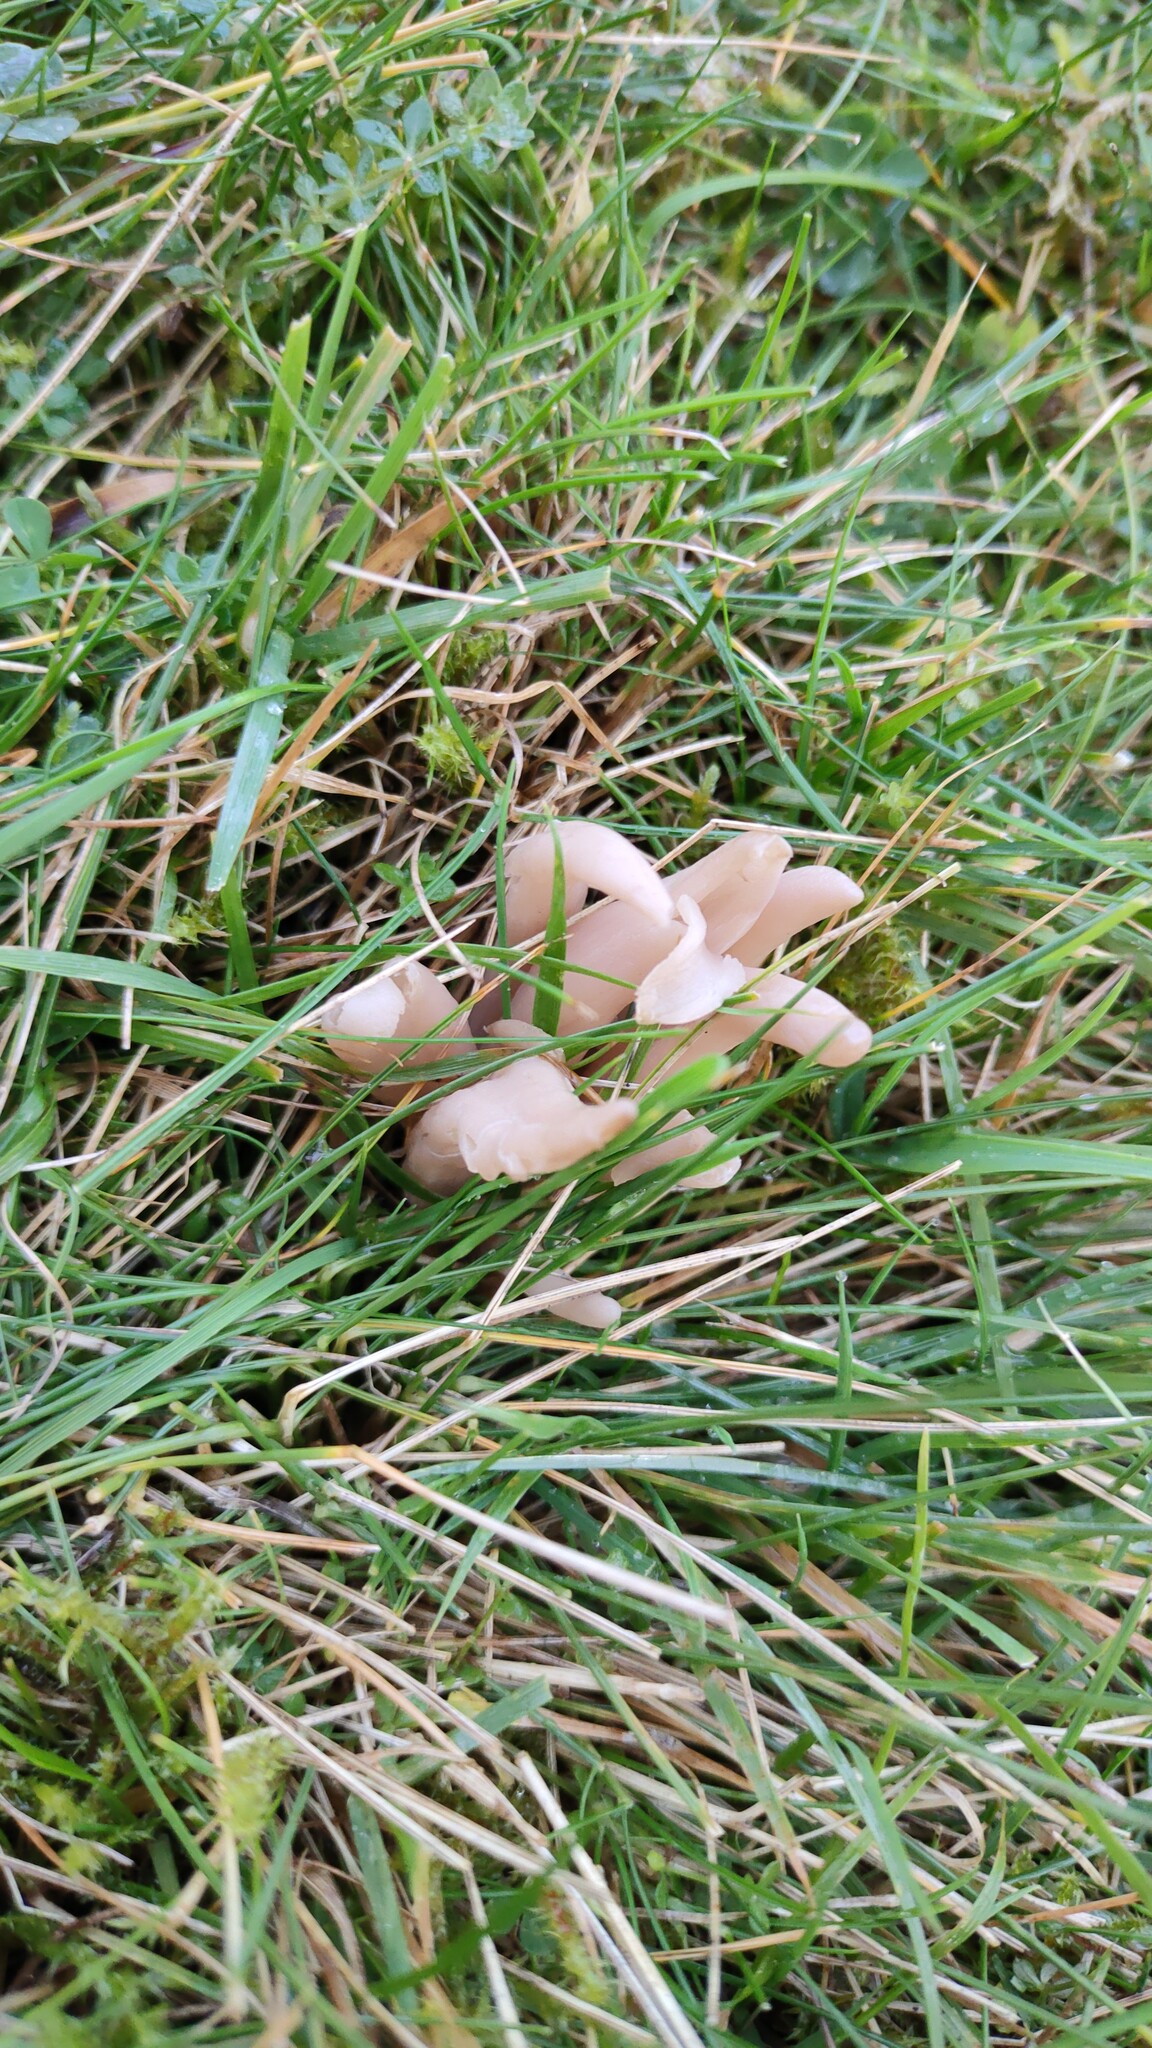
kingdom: Fungi
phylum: Basidiomycota
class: Agaricomycetes
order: Agaricales
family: Clavariaceae
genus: Clavaria
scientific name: Clavaria fumosa
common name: Smoky spindles
